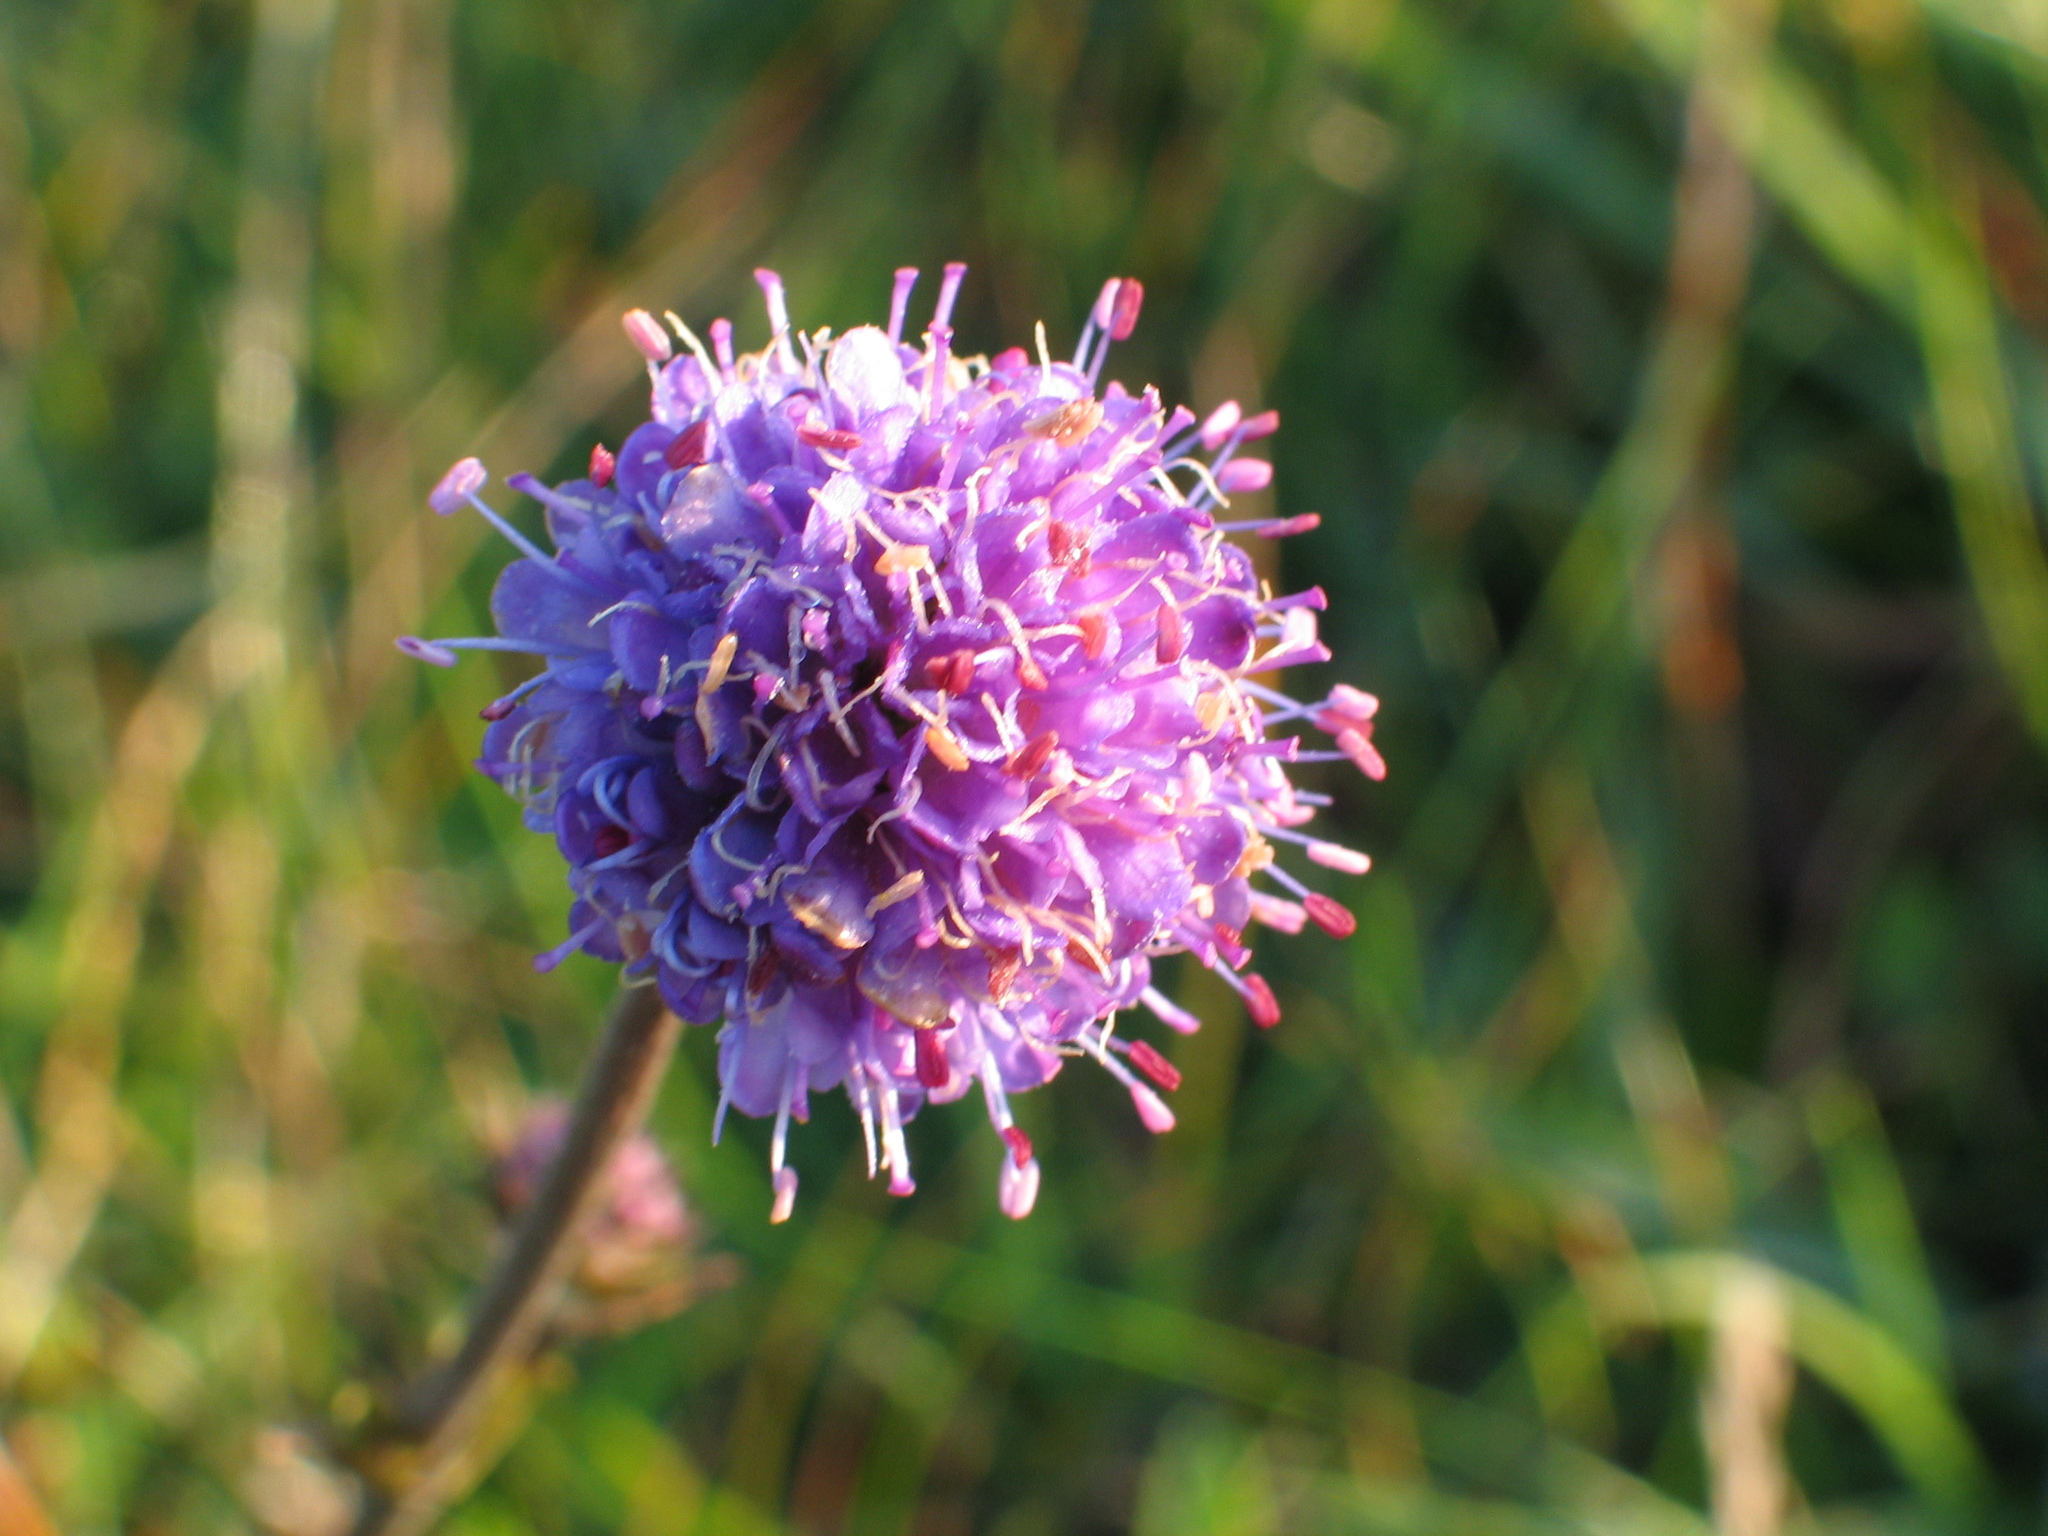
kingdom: Plantae
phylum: Tracheophyta
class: Magnoliopsida
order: Dipsacales
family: Caprifoliaceae
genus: Succisa
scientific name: Succisa pratensis
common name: Devil's-bit
